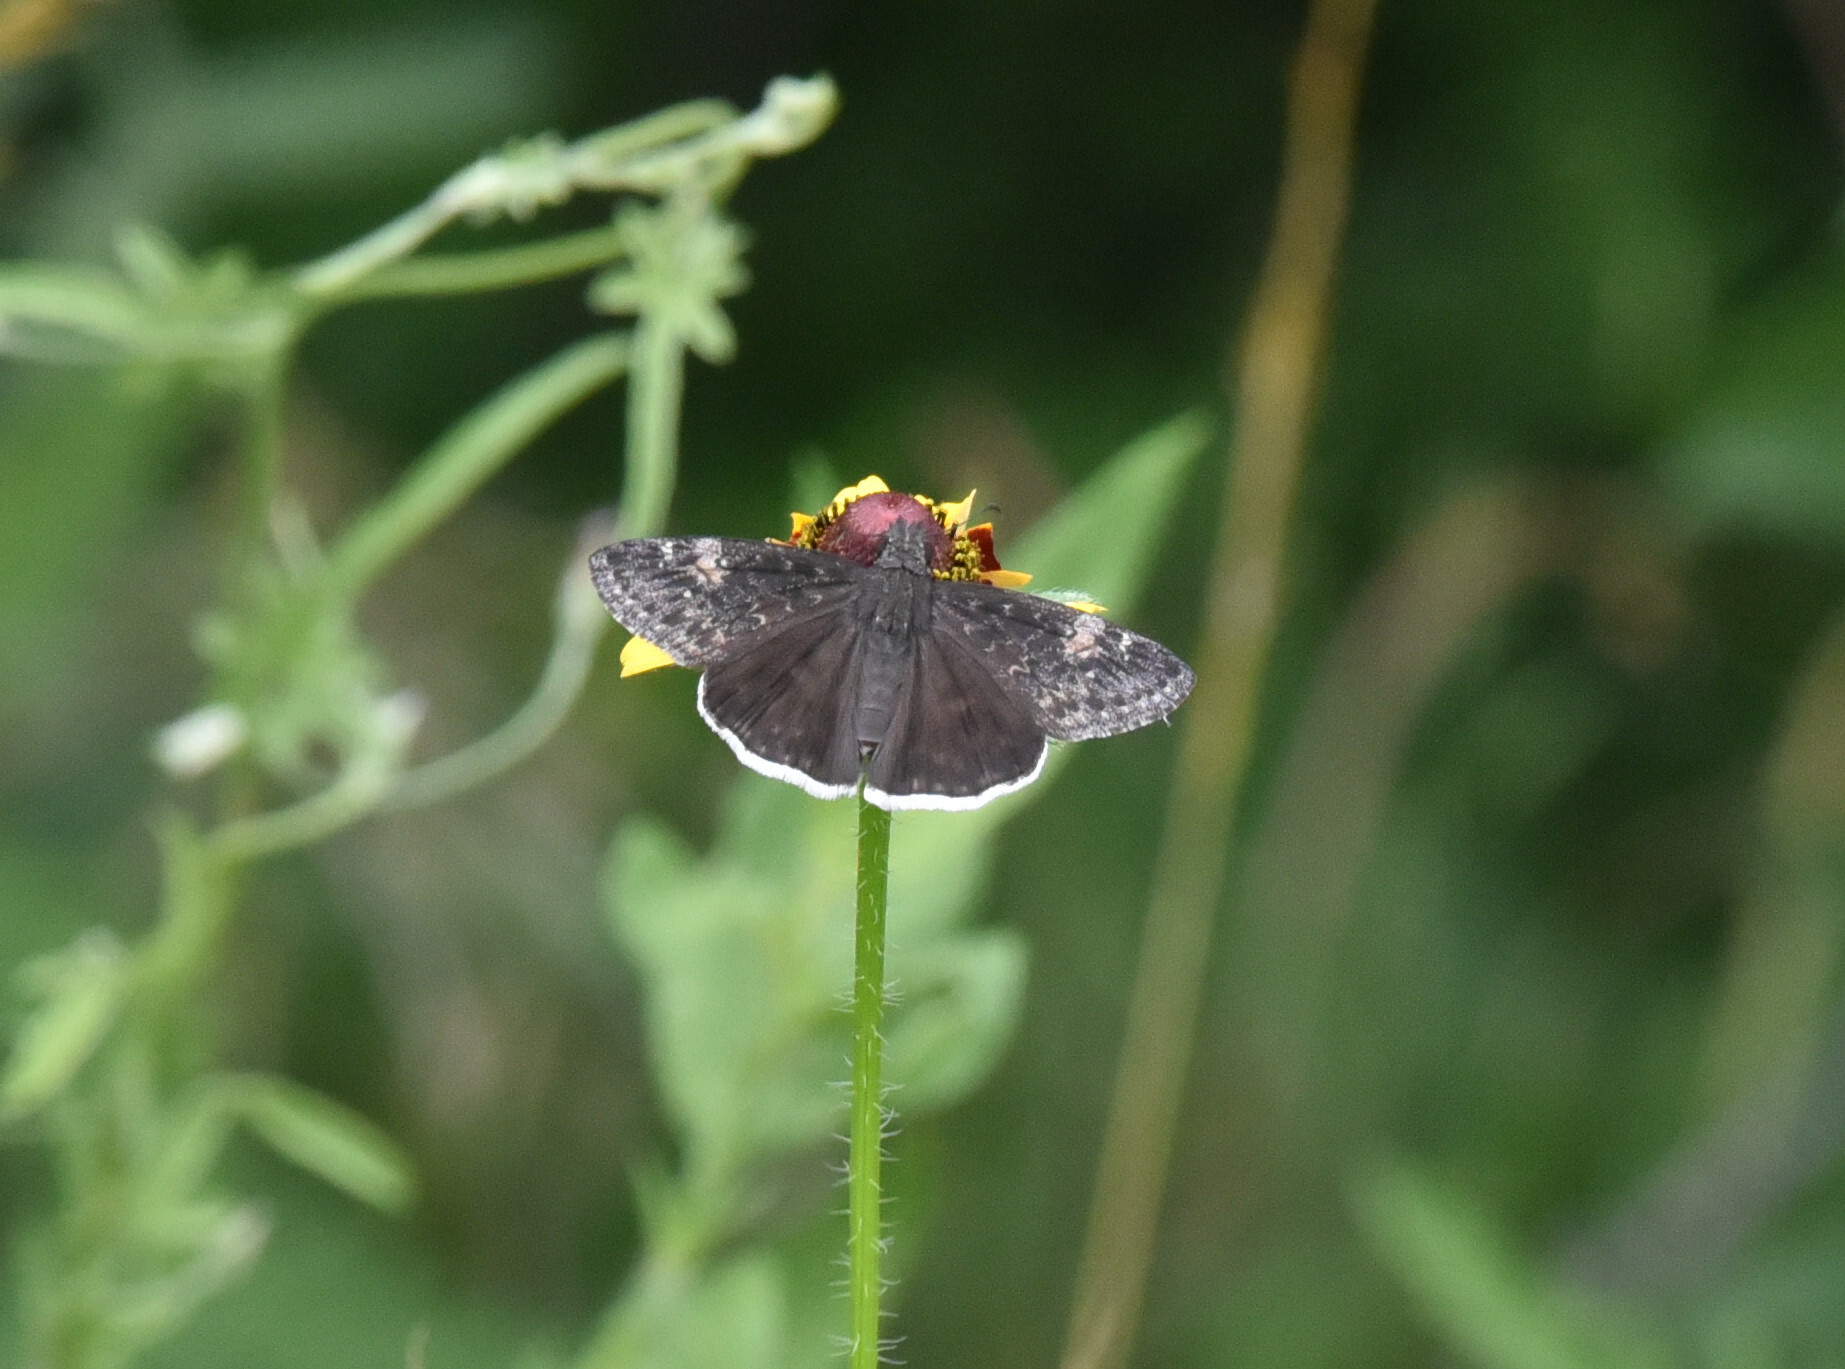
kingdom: Animalia
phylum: Arthropoda
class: Insecta
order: Lepidoptera
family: Hesperiidae
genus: Erynnis
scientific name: Erynnis funeralis
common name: Funereal duskywing
